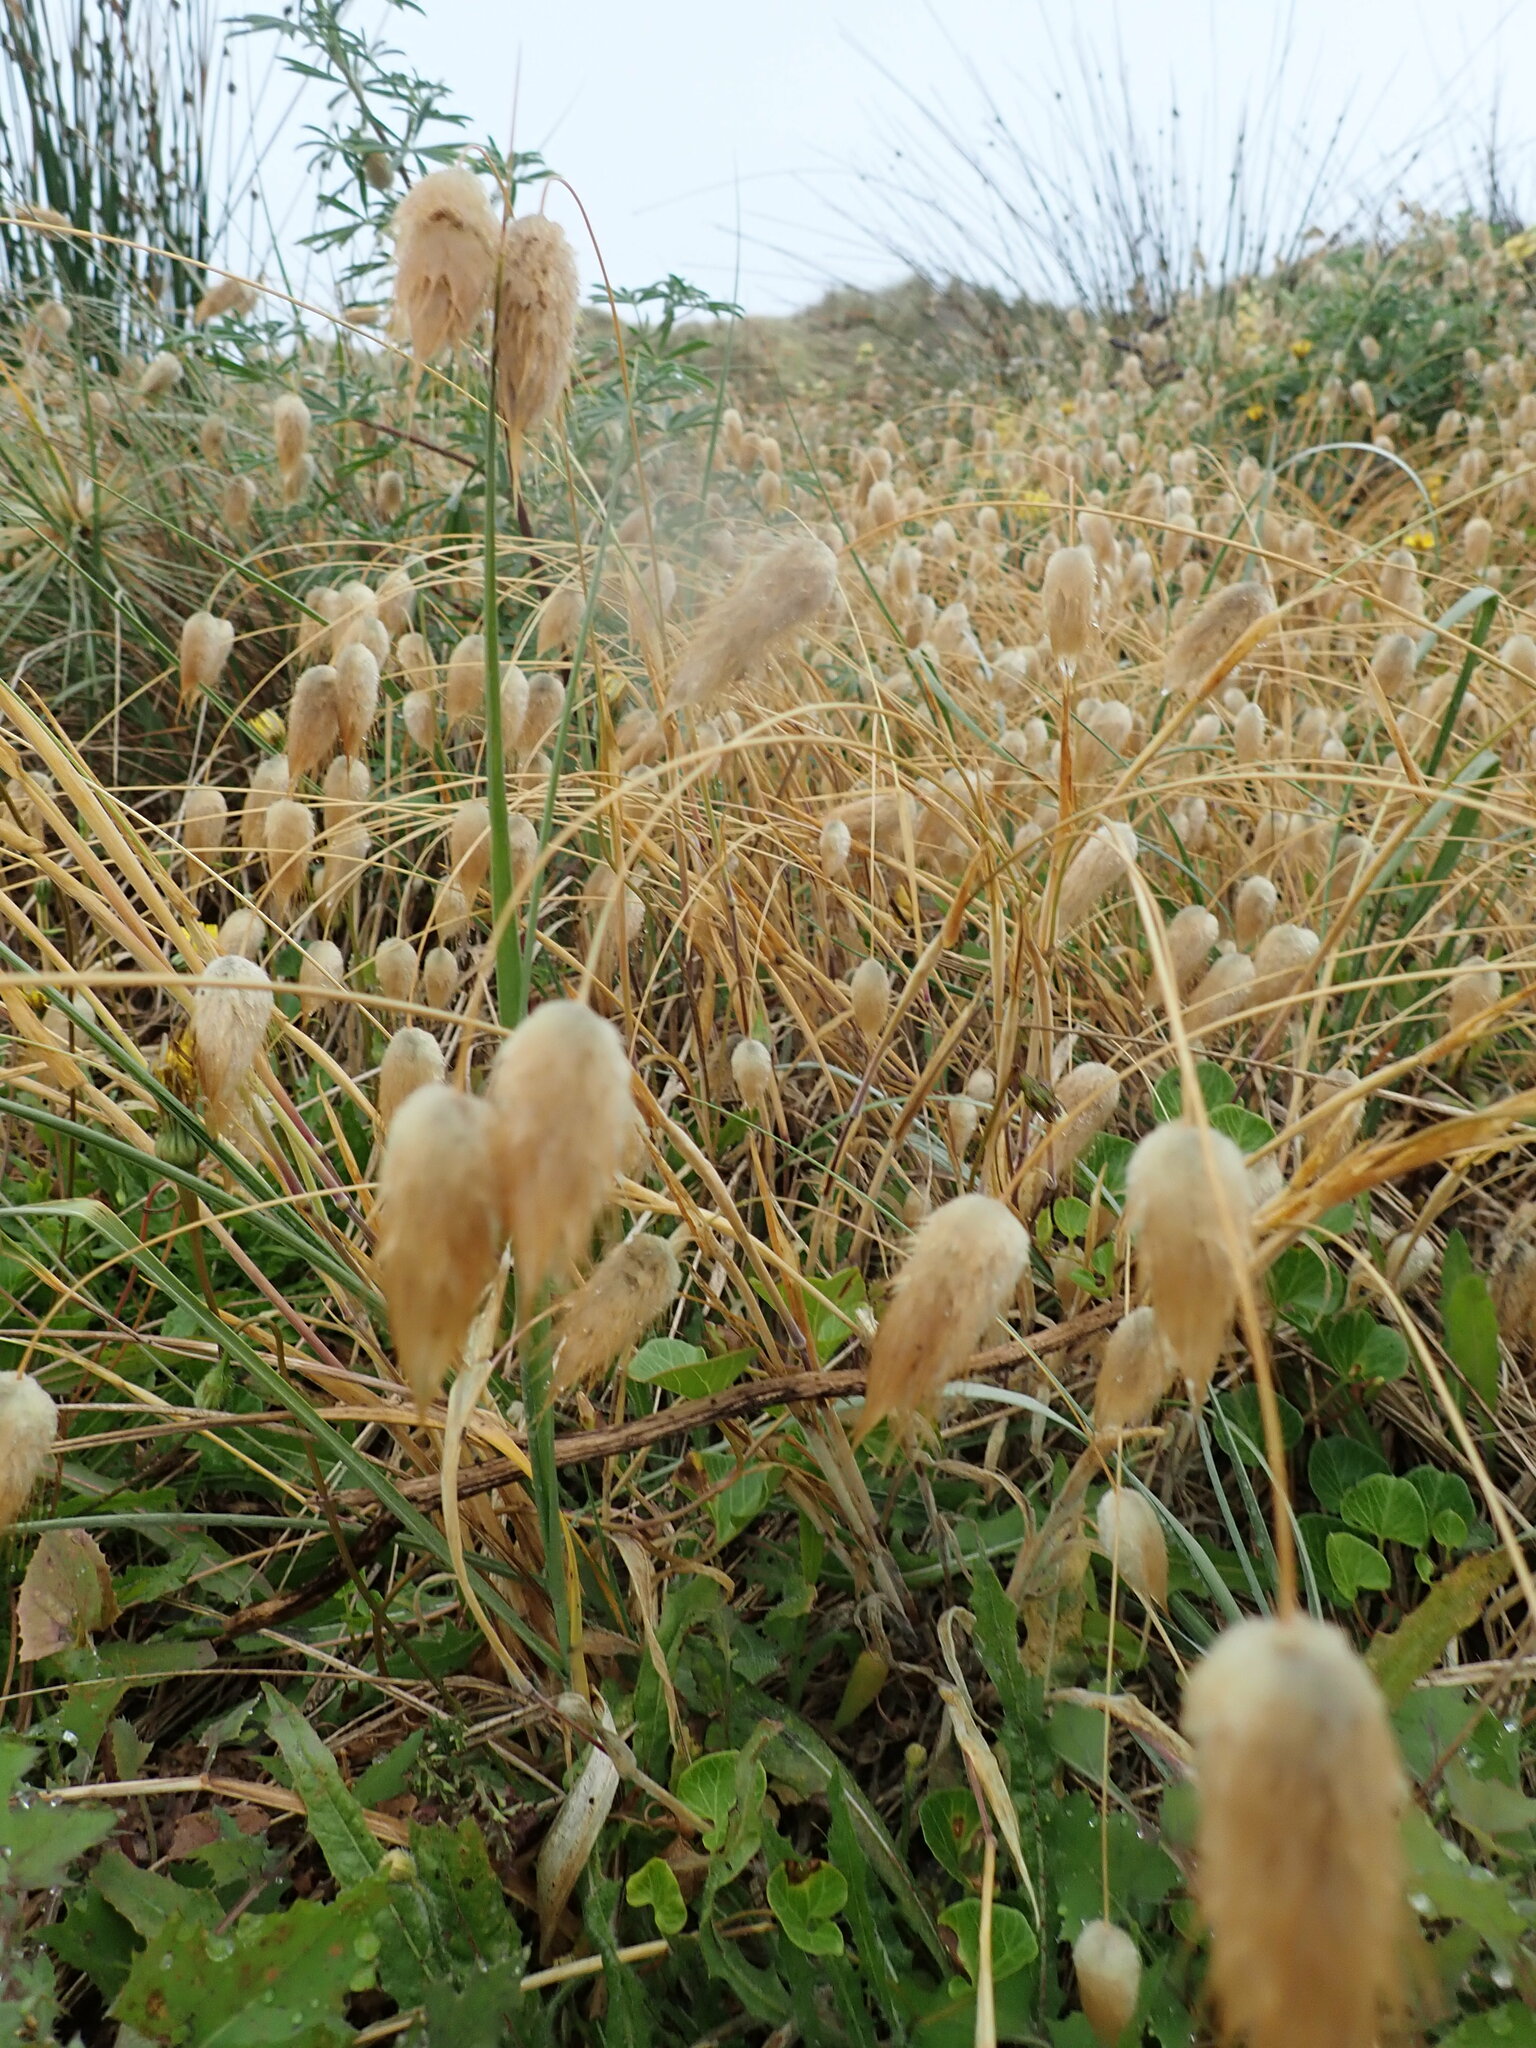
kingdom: Plantae
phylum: Tracheophyta
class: Liliopsida
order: Poales
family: Poaceae
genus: Lagurus
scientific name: Lagurus ovatus
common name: Hare's-tail
